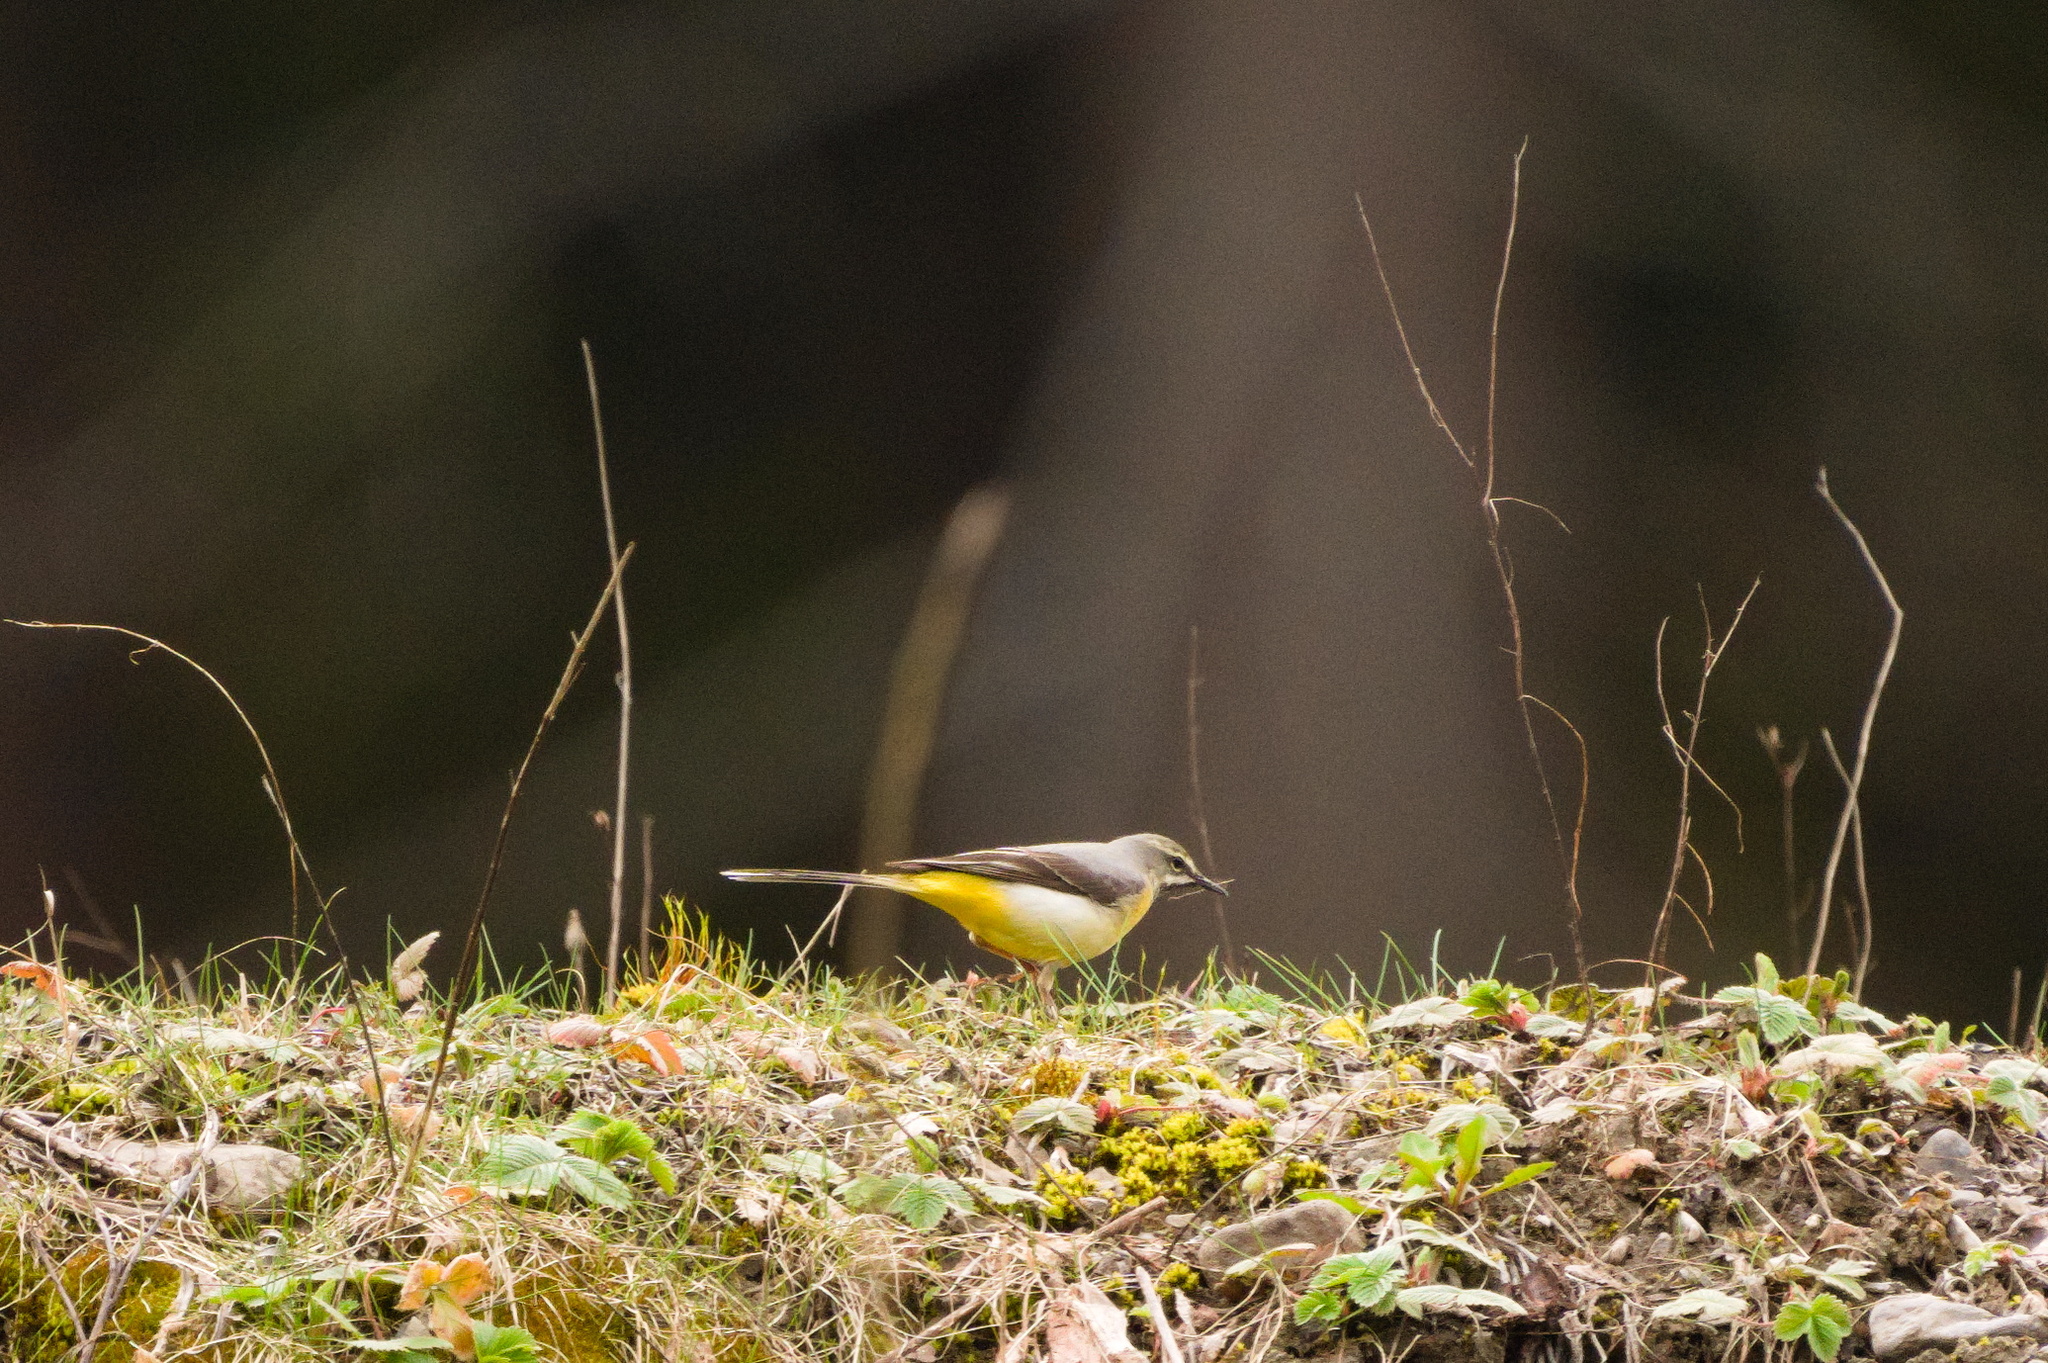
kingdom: Animalia
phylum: Chordata
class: Aves
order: Passeriformes
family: Motacillidae
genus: Motacilla
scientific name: Motacilla cinerea
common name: Grey wagtail
